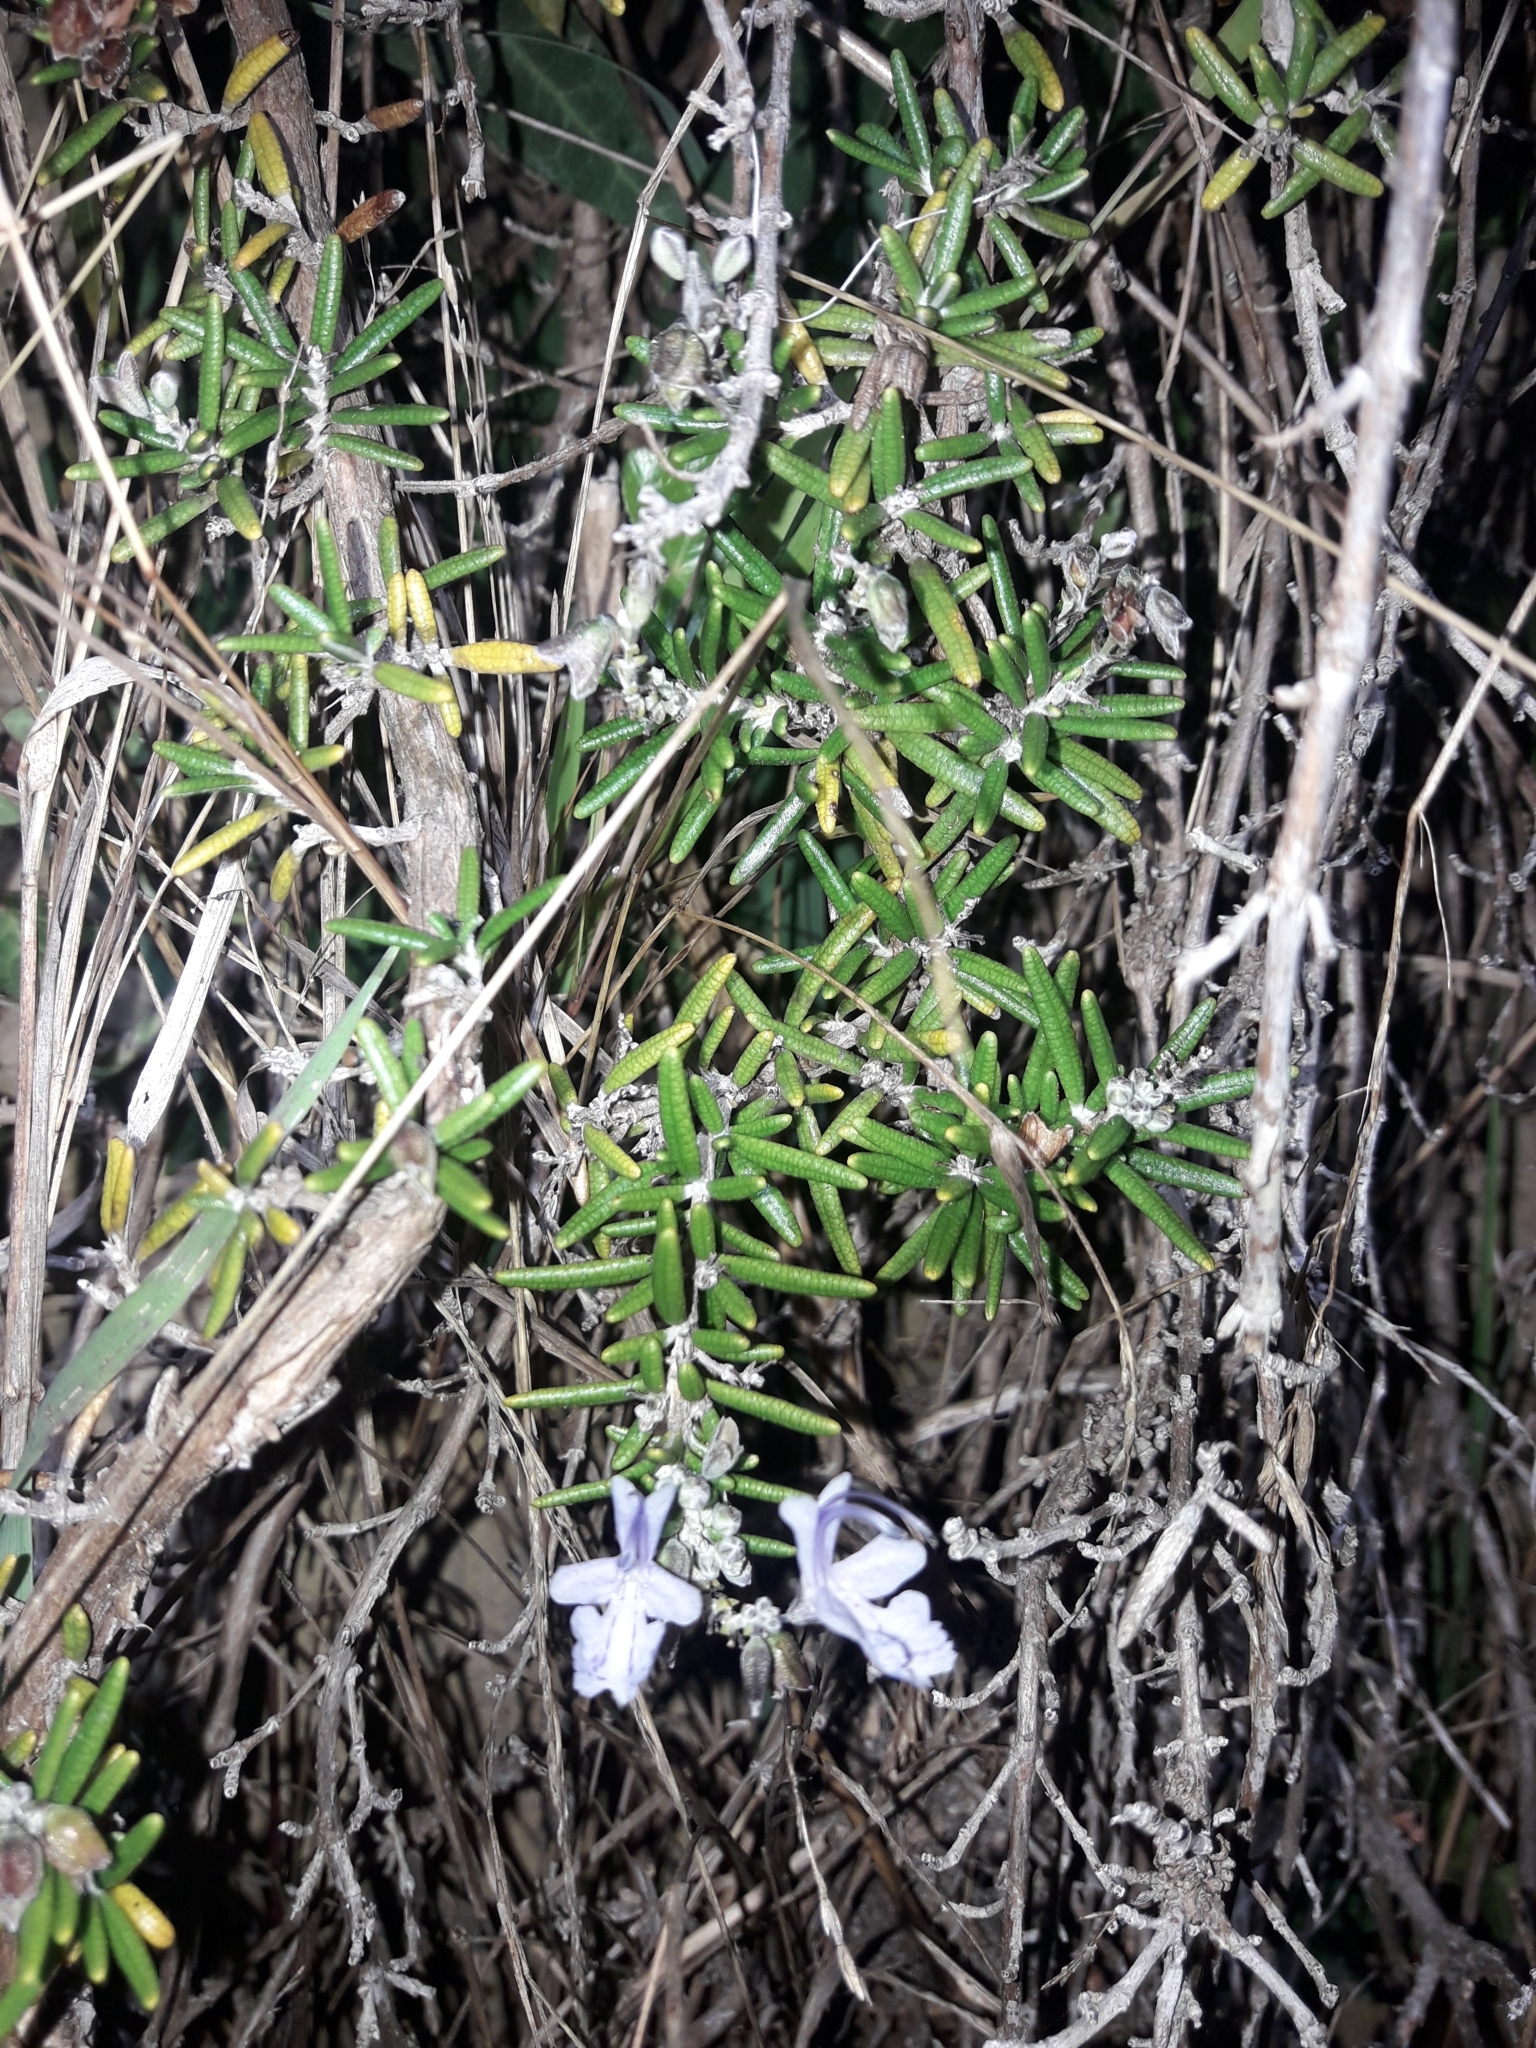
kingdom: Plantae
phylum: Tracheophyta
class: Magnoliopsida
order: Lamiales
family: Lamiaceae
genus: Salvia
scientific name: Salvia rosmarinus
